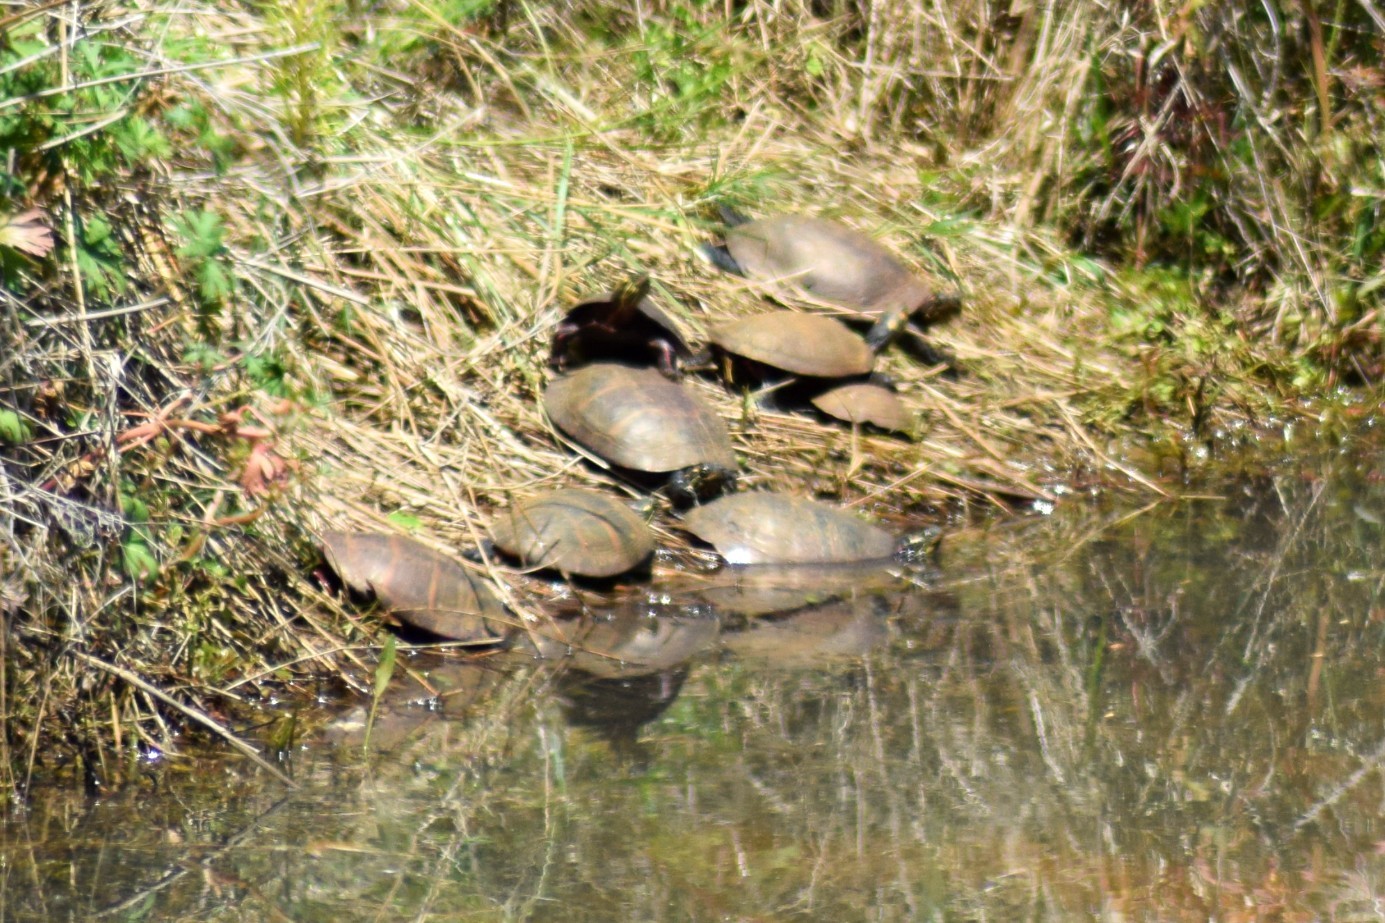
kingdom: Animalia
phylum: Chordata
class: Testudines
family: Emydidae
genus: Chrysemys
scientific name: Chrysemys picta
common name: Painted turtle
